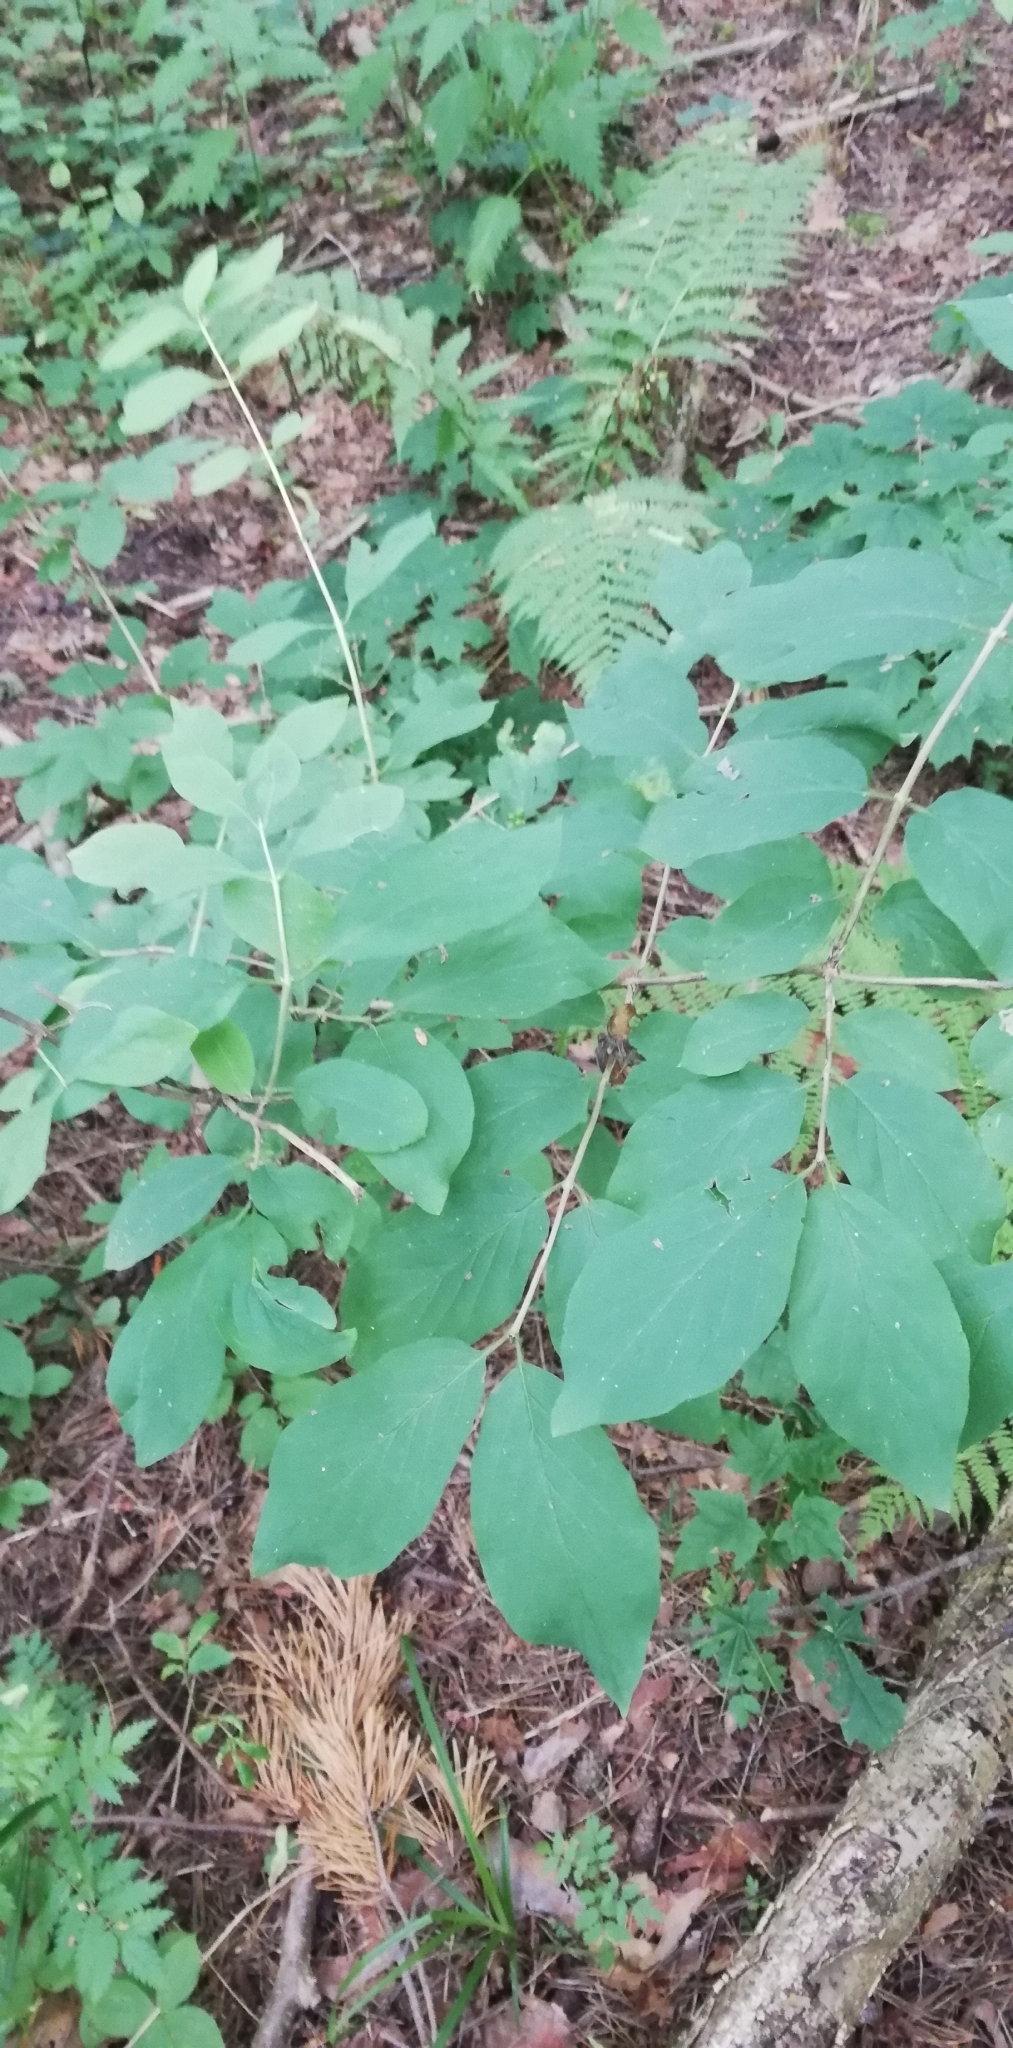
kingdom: Plantae
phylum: Tracheophyta
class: Magnoliopsida
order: Dipsacales
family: Caprifoliaceae
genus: Lonicera
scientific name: Lonicera xylosteum
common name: Fly honeysuckle
